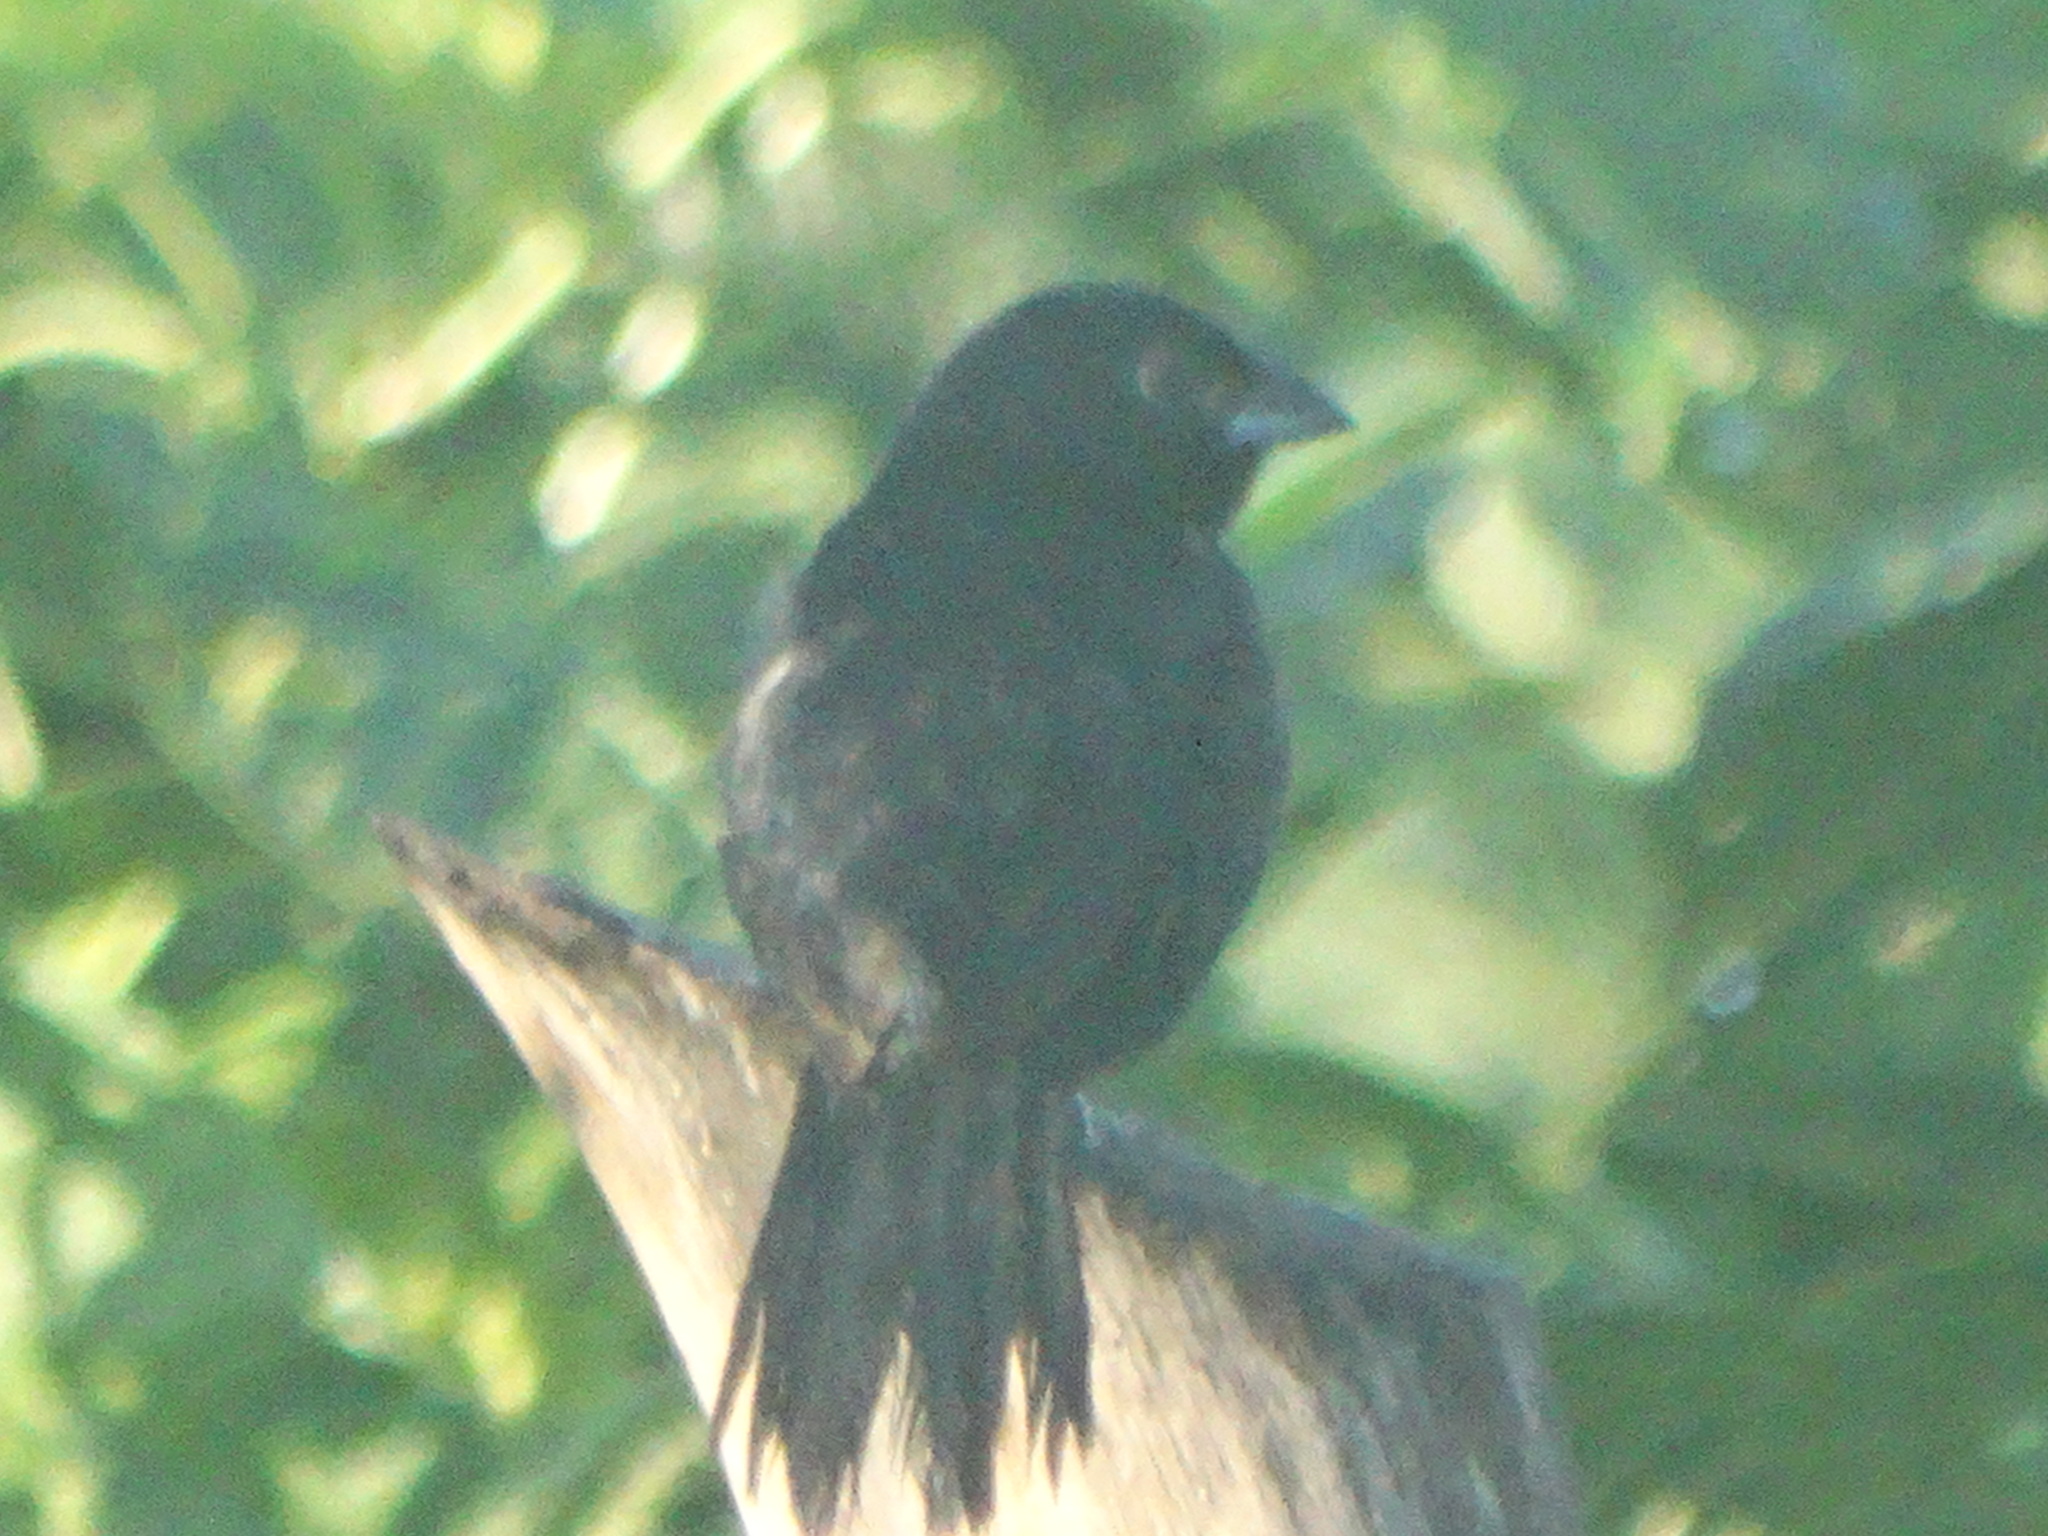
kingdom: Animalia
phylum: Chordata
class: Aves
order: Passeriformes
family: Thraupidae
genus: Volatinia
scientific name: Volatinia jacarina
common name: Blue-black grassquit
